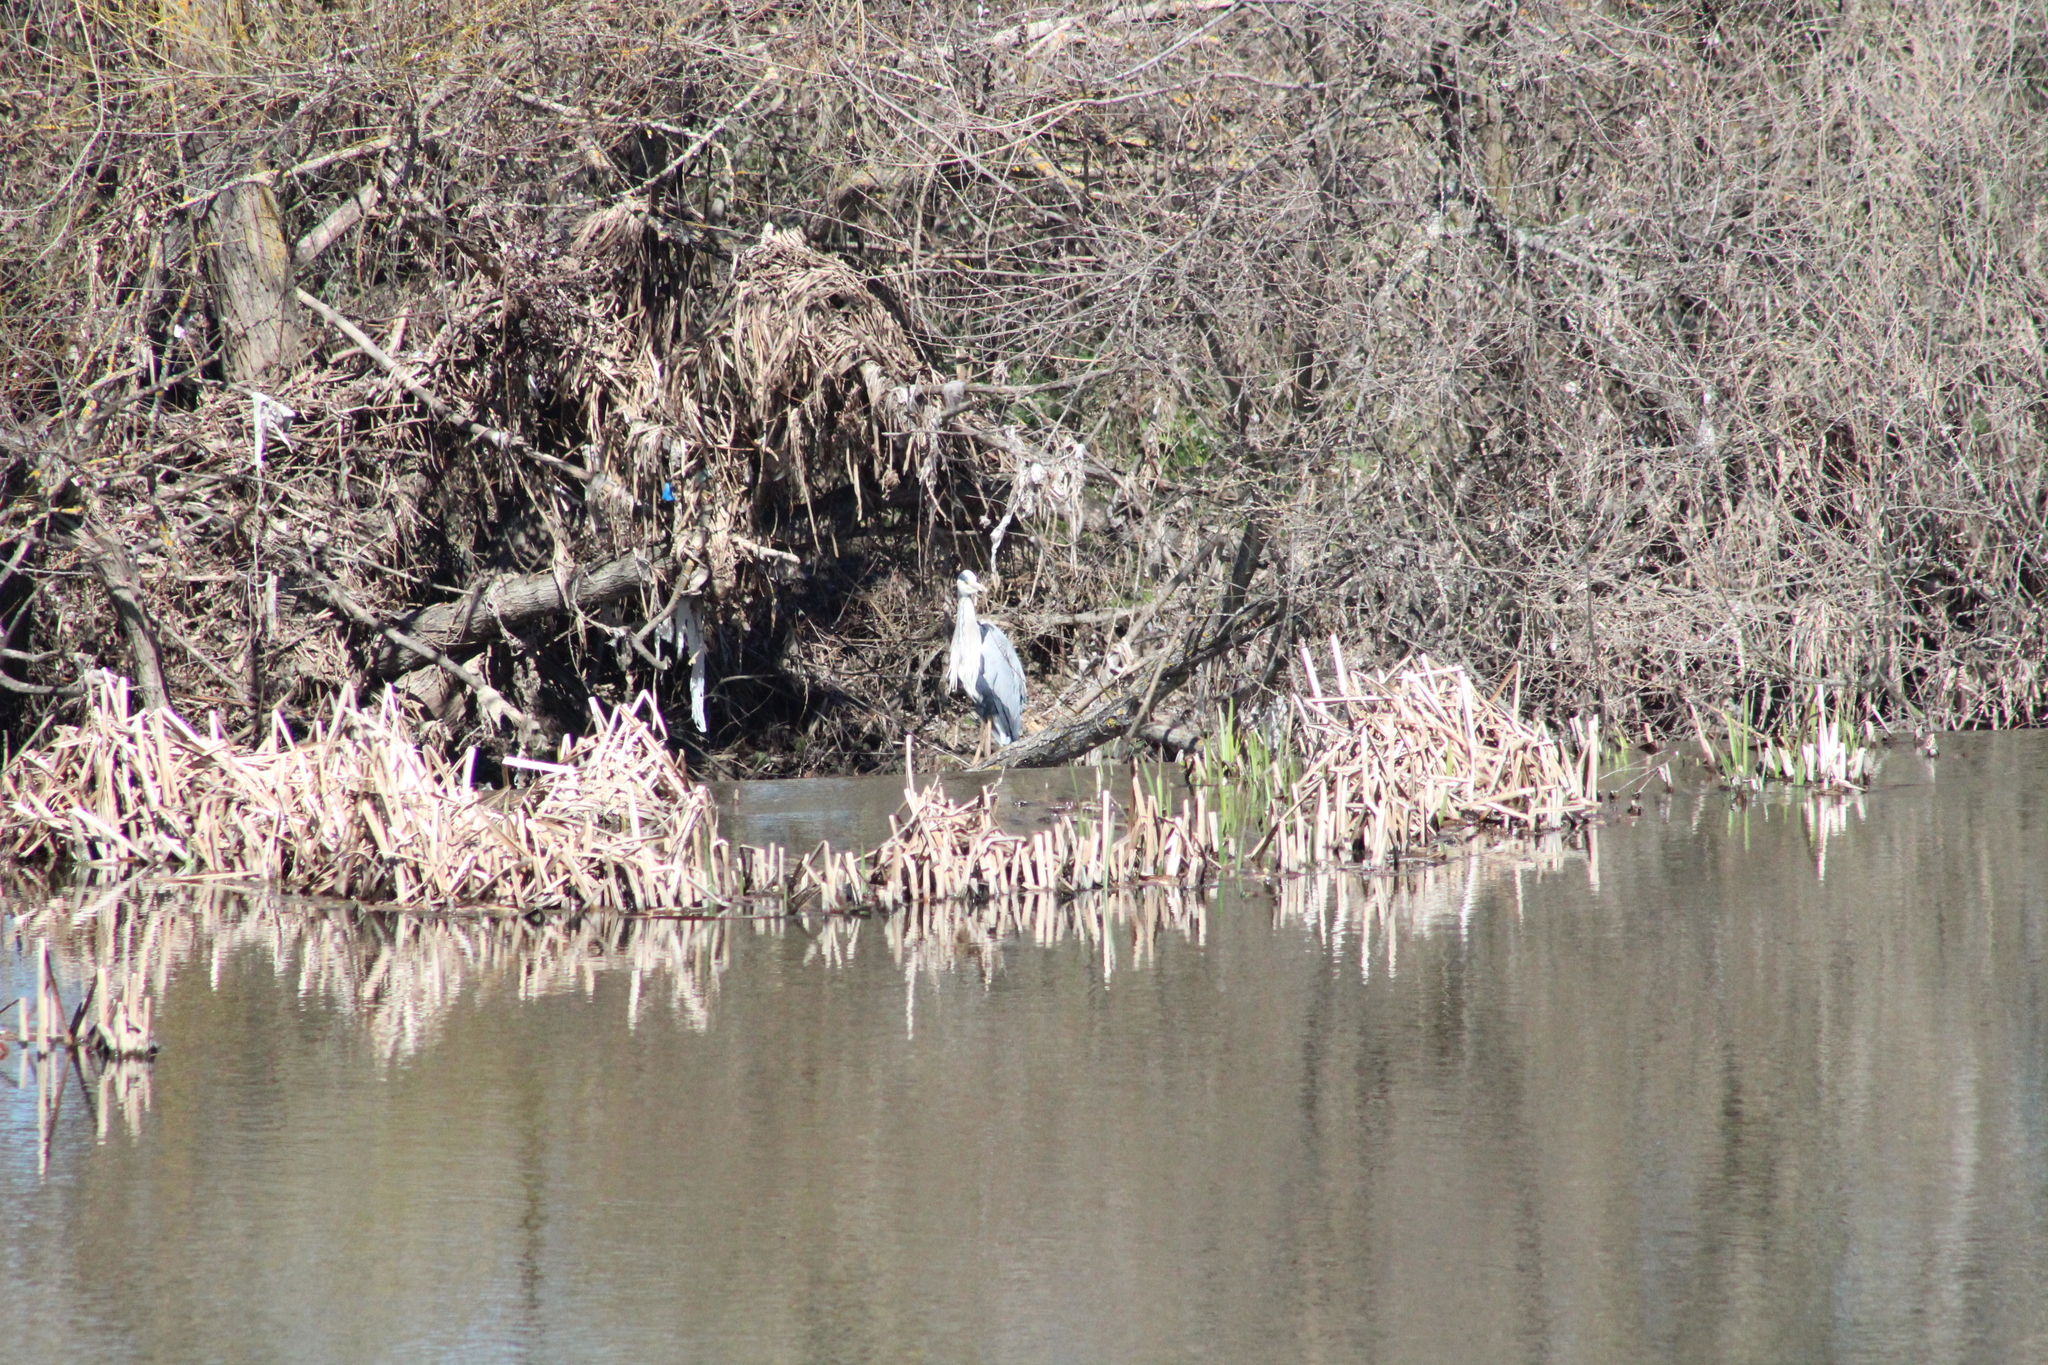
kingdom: Animalia
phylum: Chordata
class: Aves
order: Pelecaniformes
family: Ardeidae
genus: Ardea
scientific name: Ardea cinerea
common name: Grey heron
